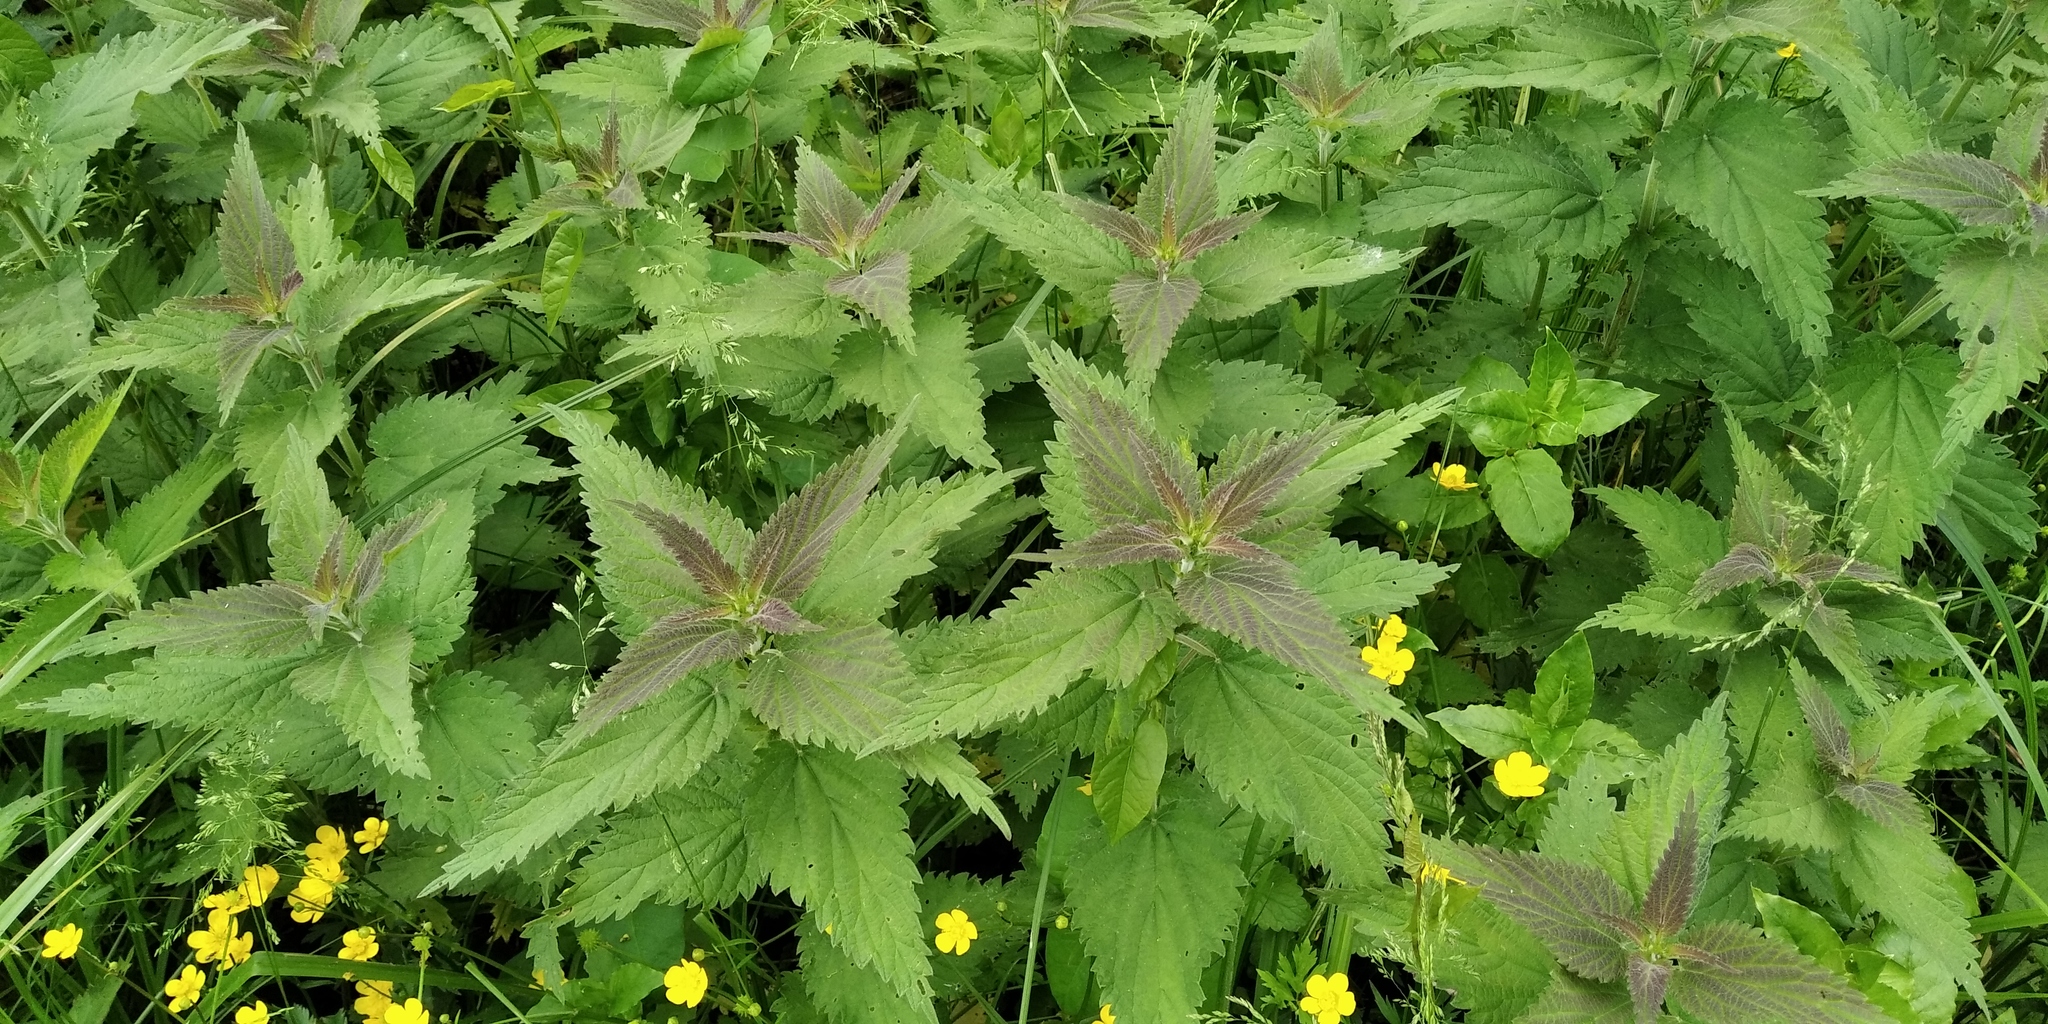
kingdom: Plantae
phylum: Tracheophyta
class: Magnoliopsida
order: Rosales
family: Urticaceae
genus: Urtica
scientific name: Urtica galeopsifolia
